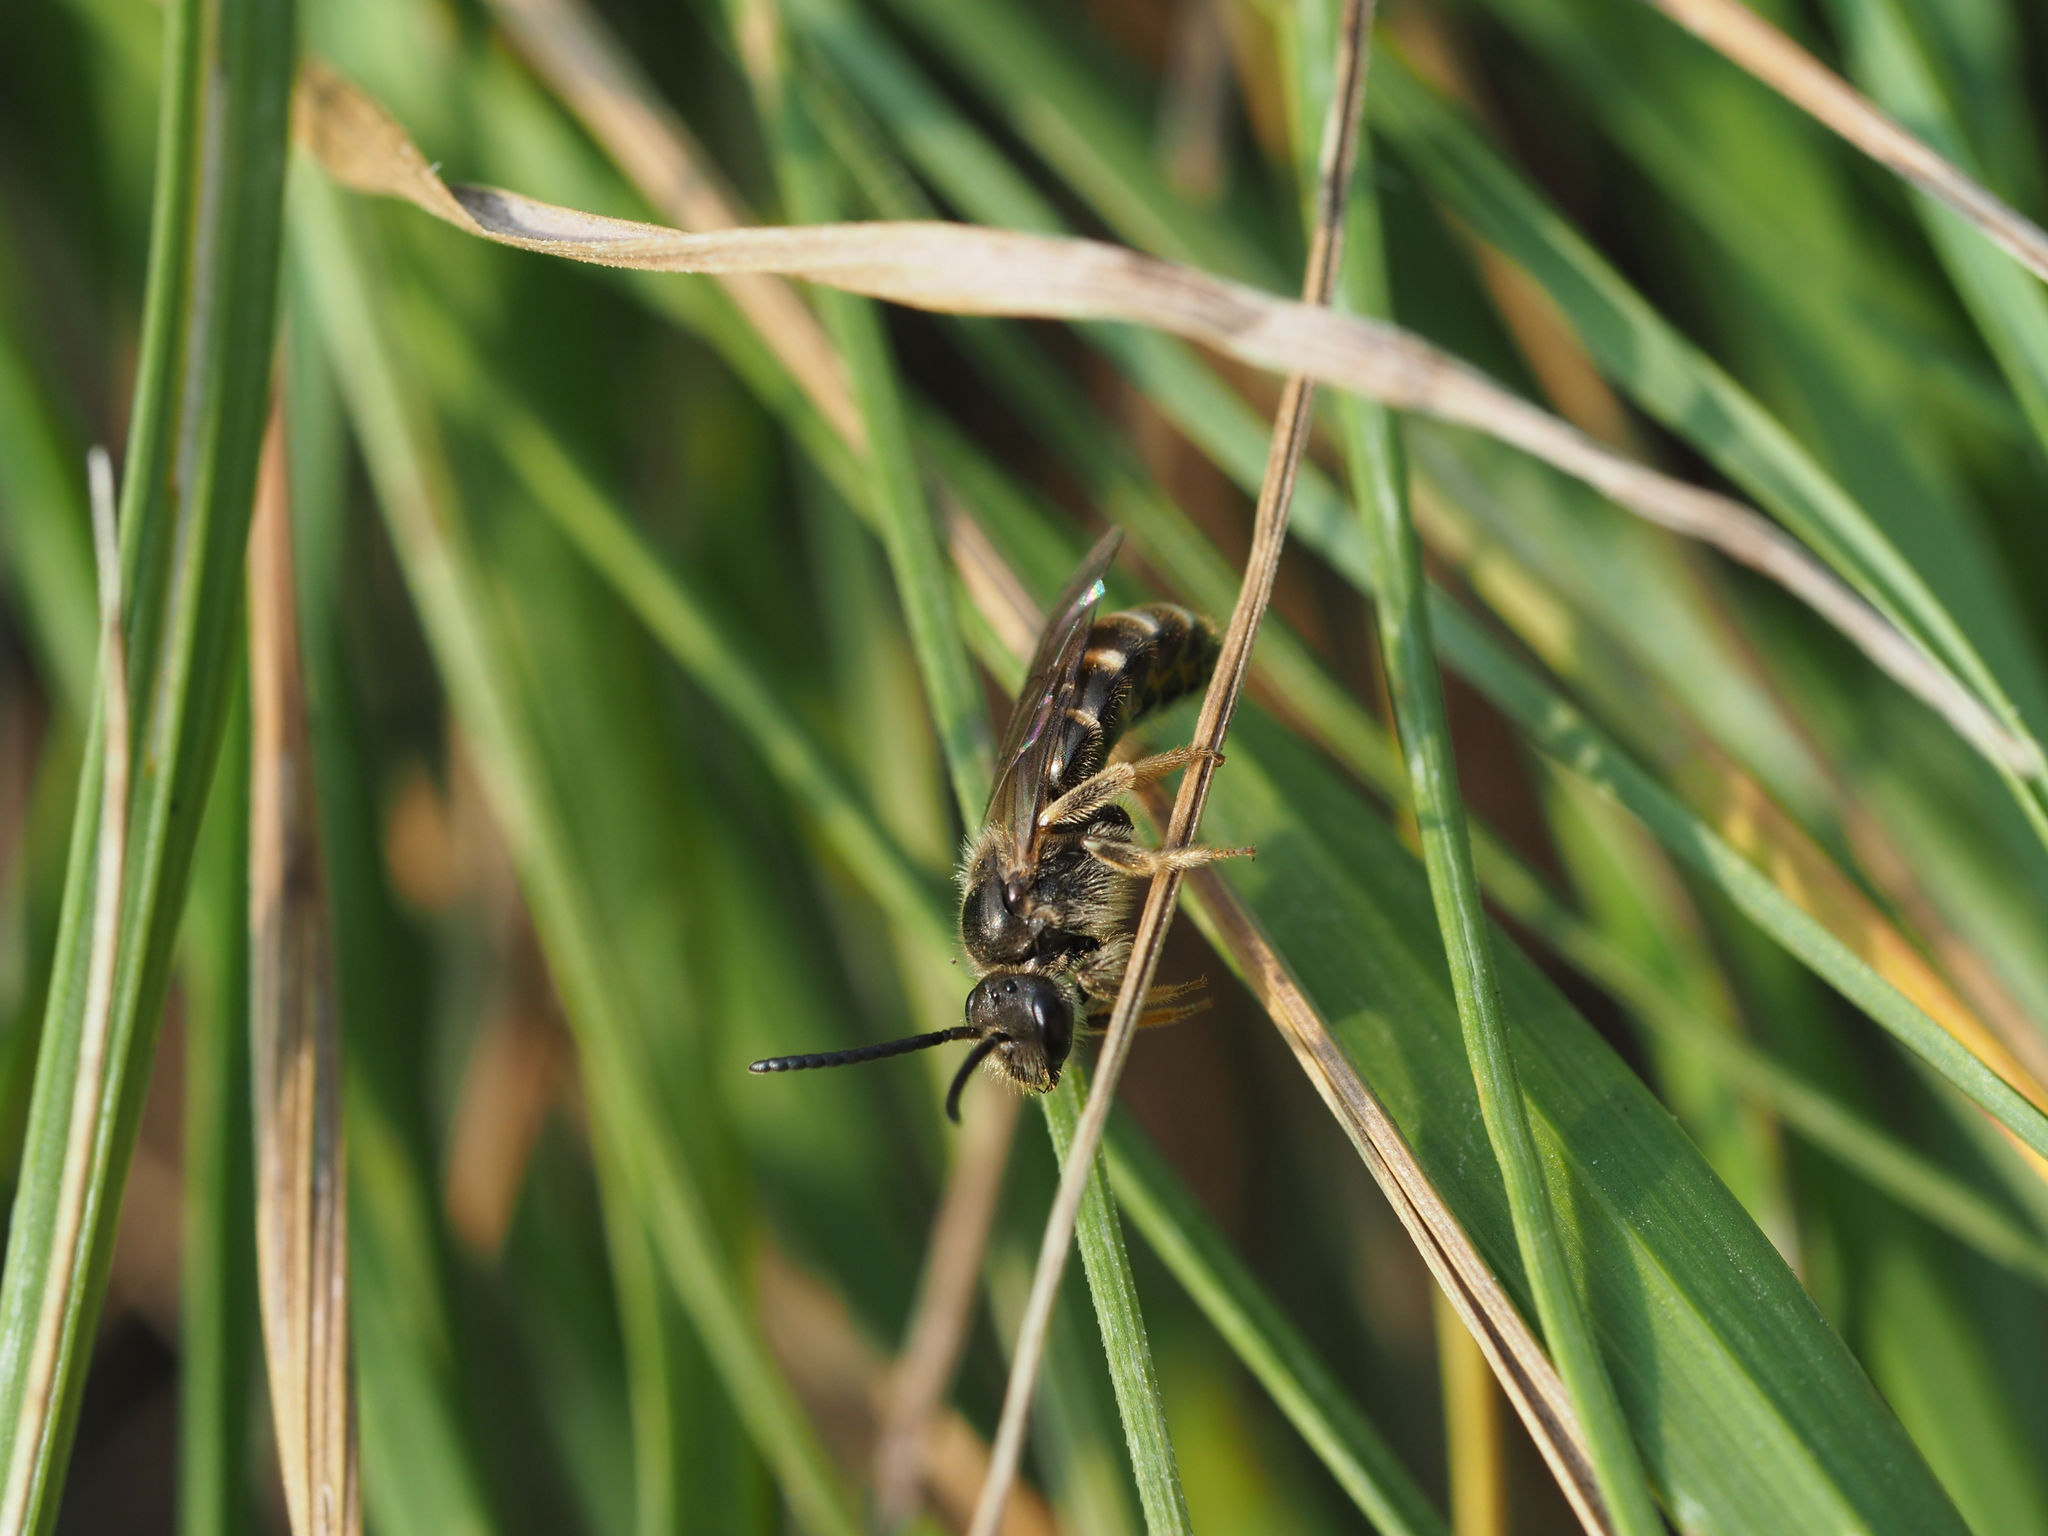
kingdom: Animalia
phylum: Arthropoda
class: Insecta
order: Hymenoptera
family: Halictidae
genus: Lasioglossum
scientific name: Lasioglossum marginatum
